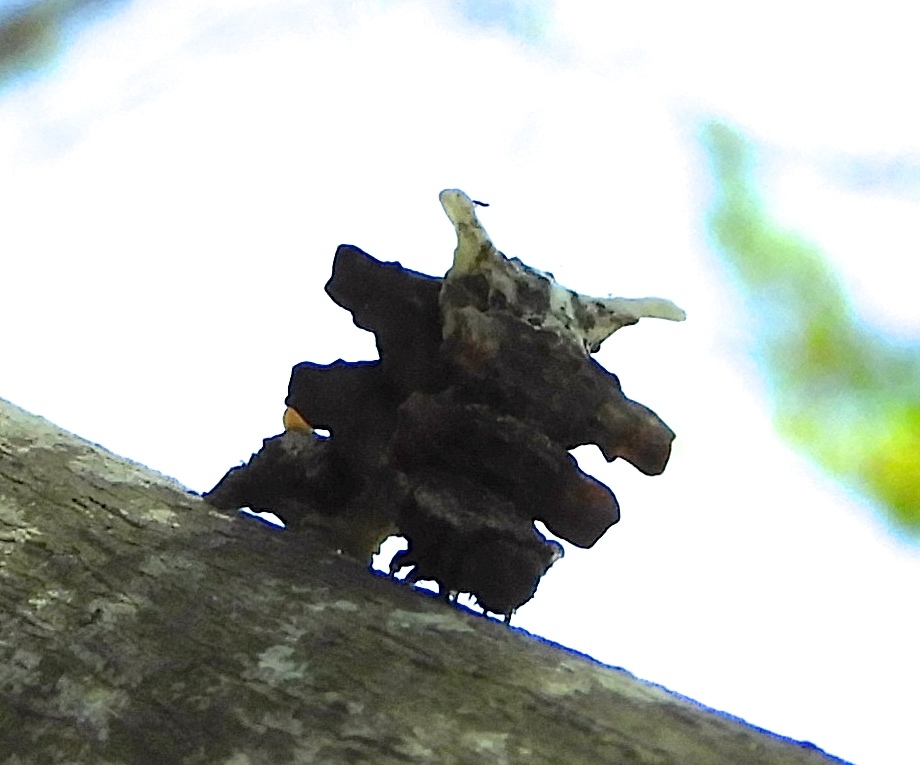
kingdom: Animalia
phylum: Arthropoda
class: Insecta
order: Lepidoptera
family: Geometridae
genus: Phrudocentra
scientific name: Phrudocentra
